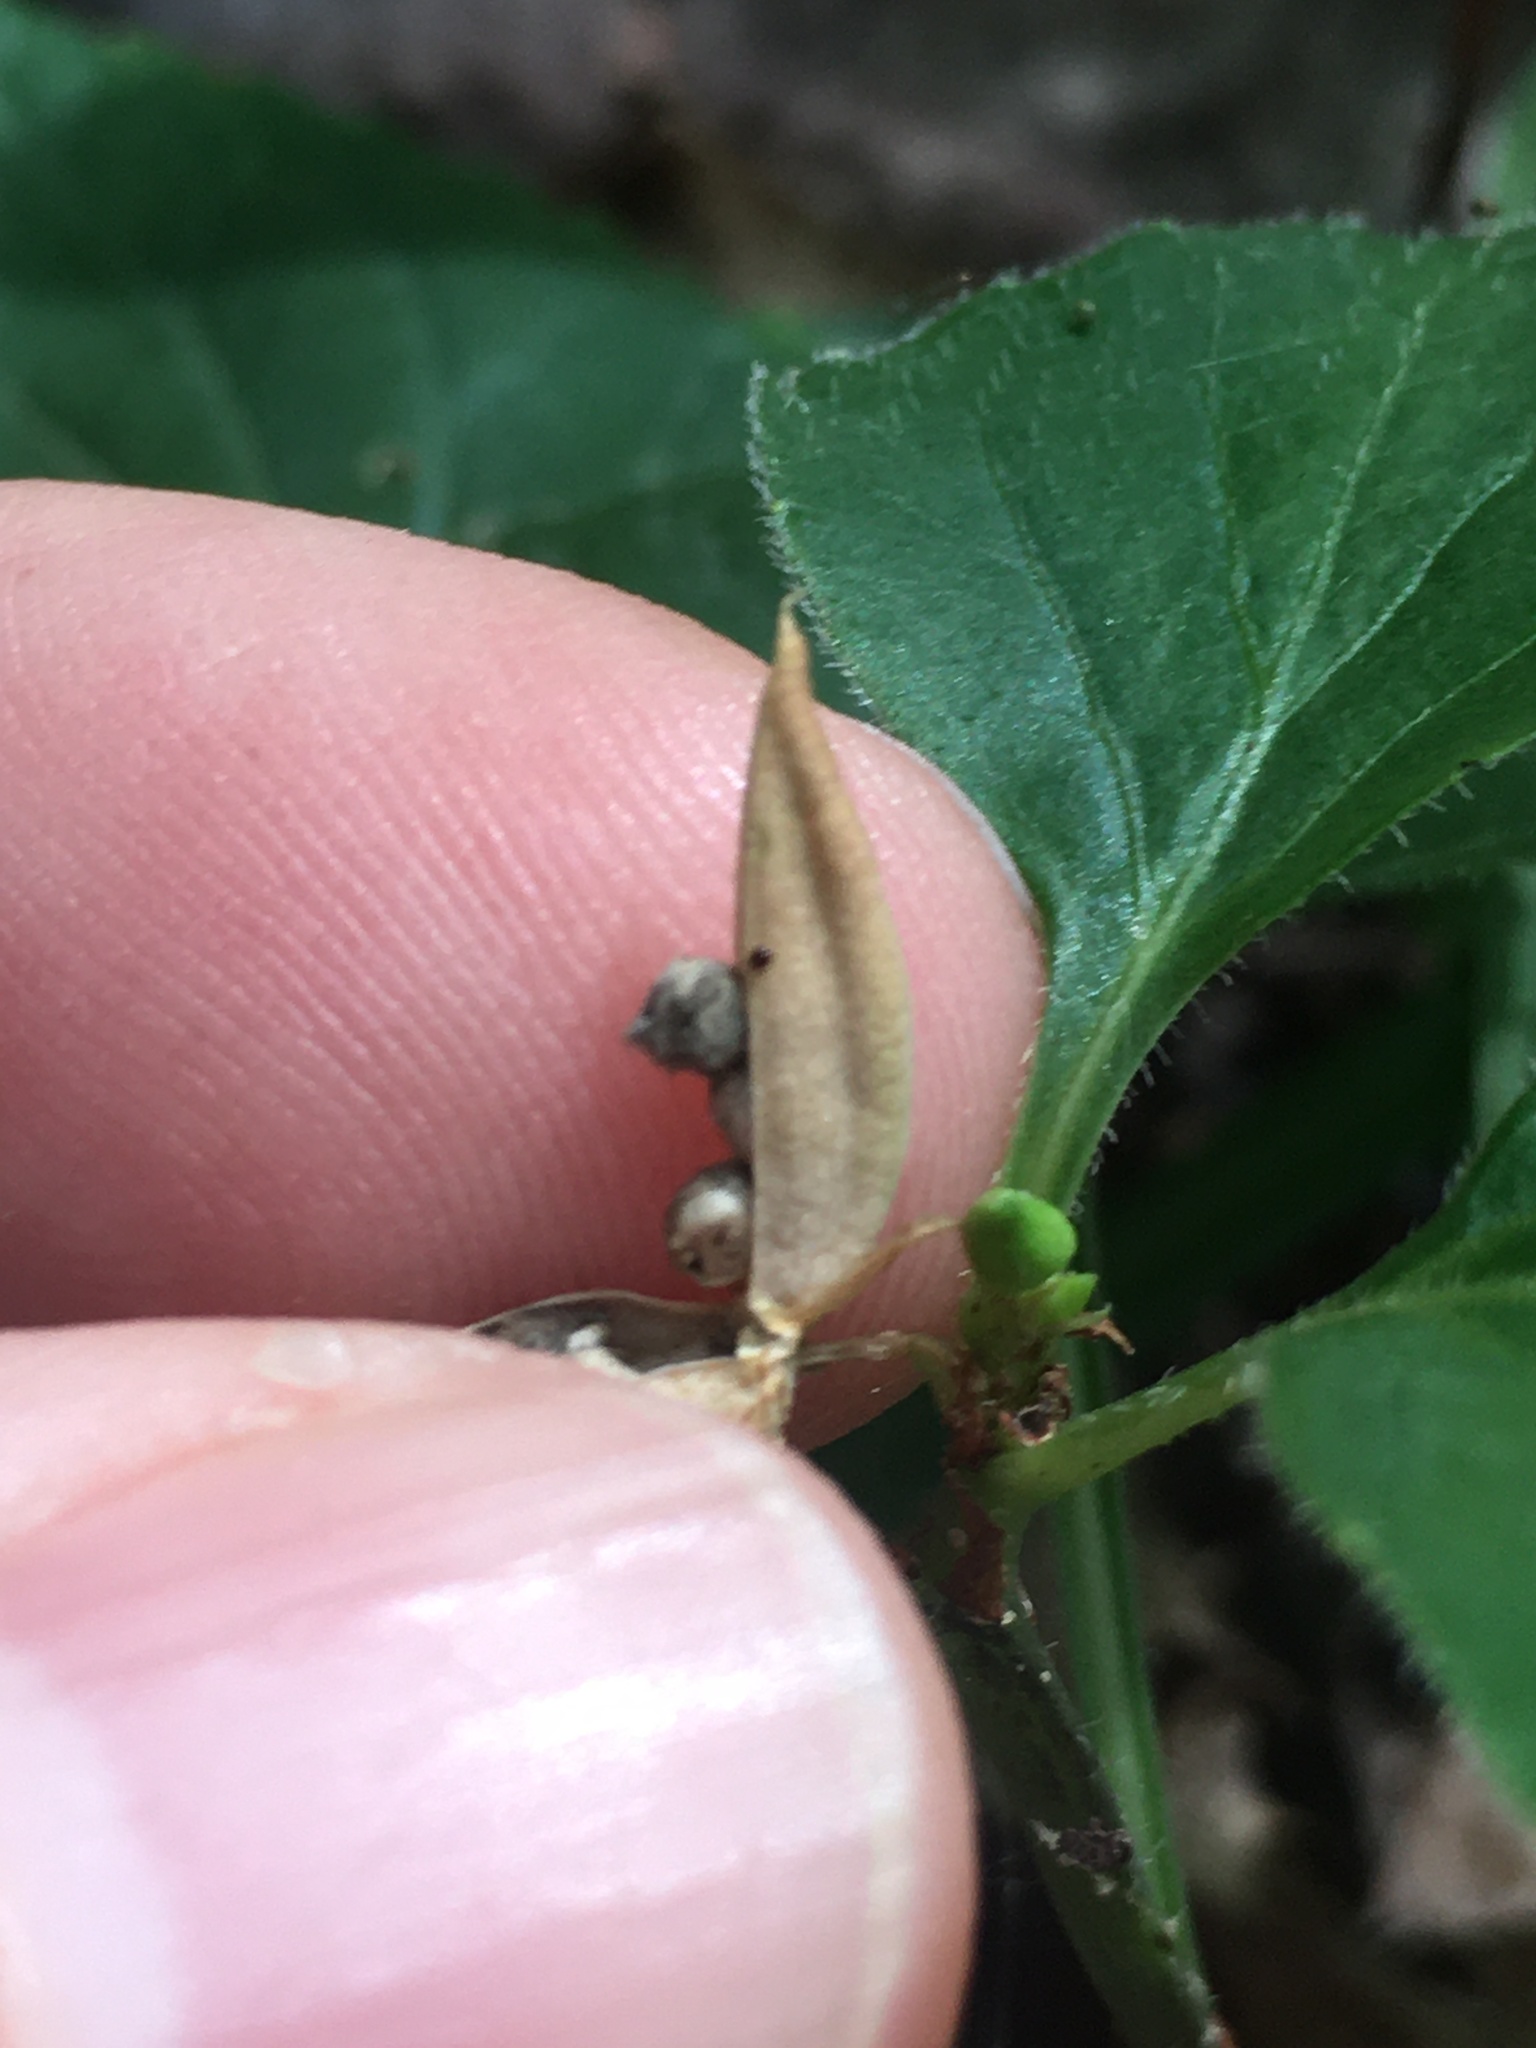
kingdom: Plantae
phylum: Tracheophyta
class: Magnoliopsida
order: Malpighiales
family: Violaceae
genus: Viola
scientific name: Viola glaberrima
